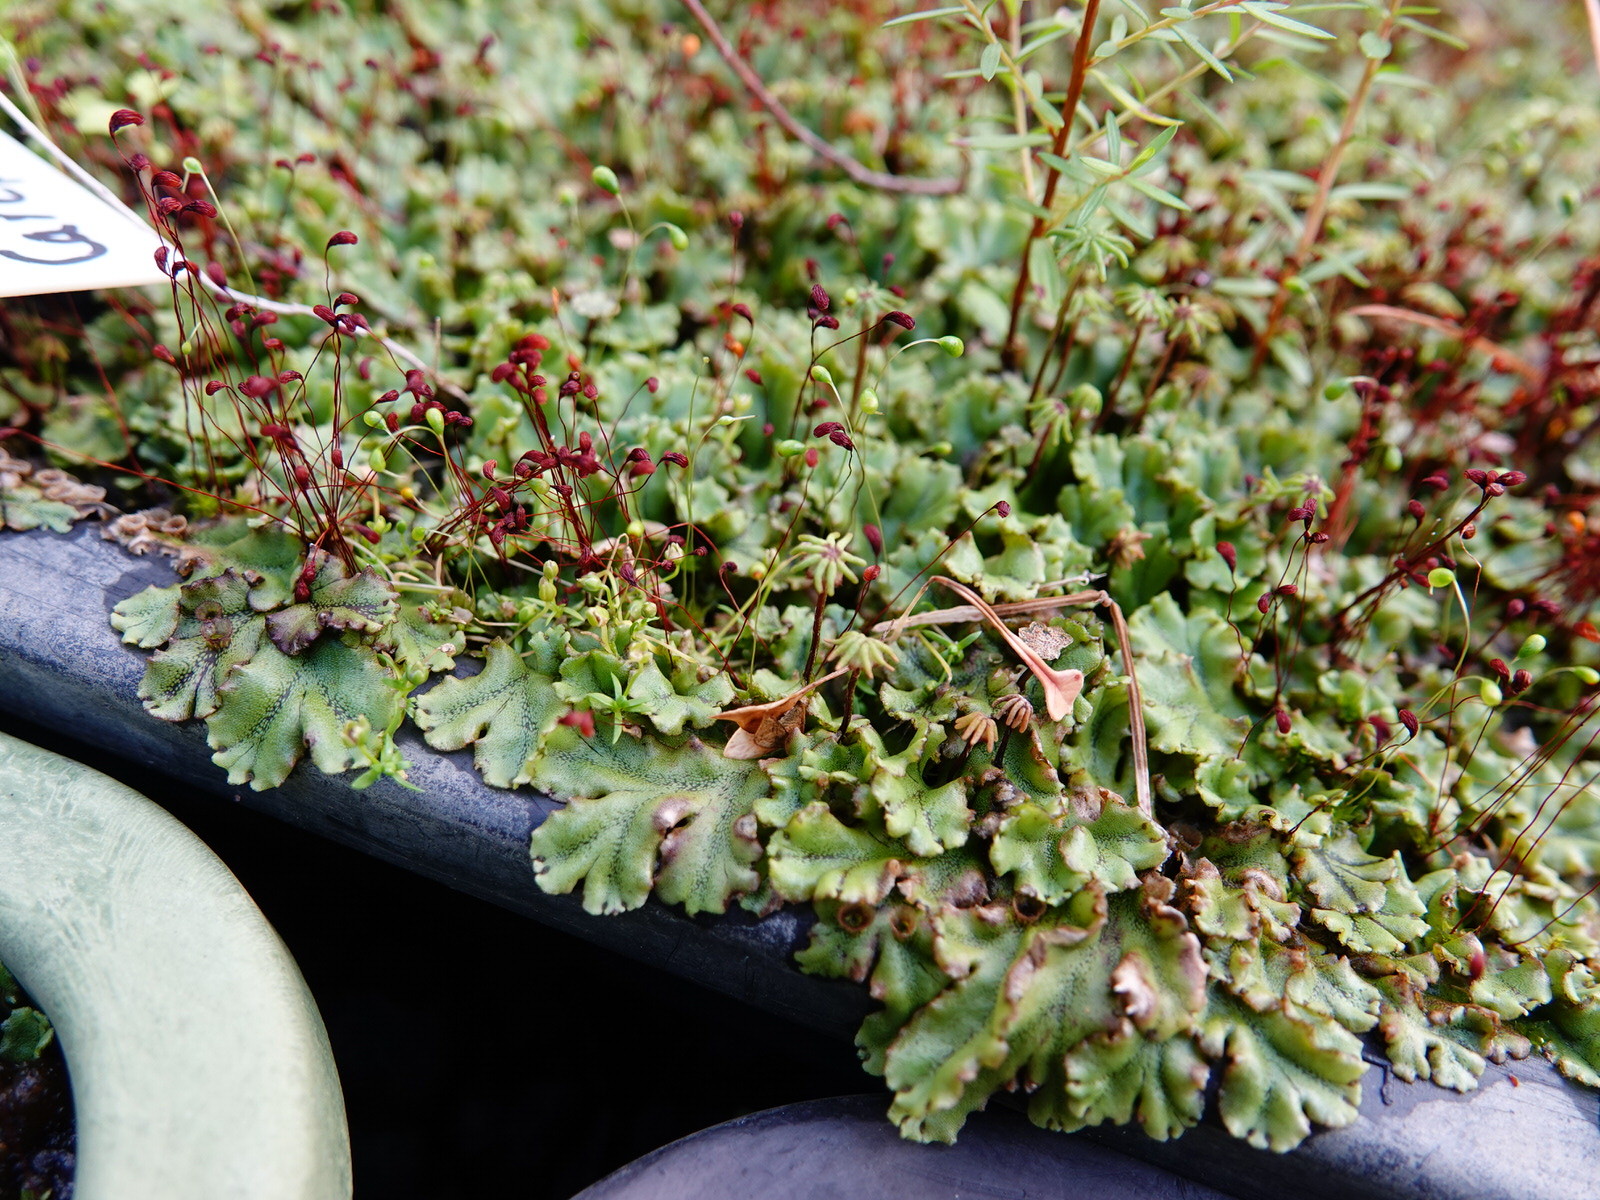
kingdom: Plantae
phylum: Marchantiophyta
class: Marchantiopsida
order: Marchantiales
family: Marchantiaceae
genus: Marchantia
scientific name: Marchantia polymorpha
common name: Common liverwort
